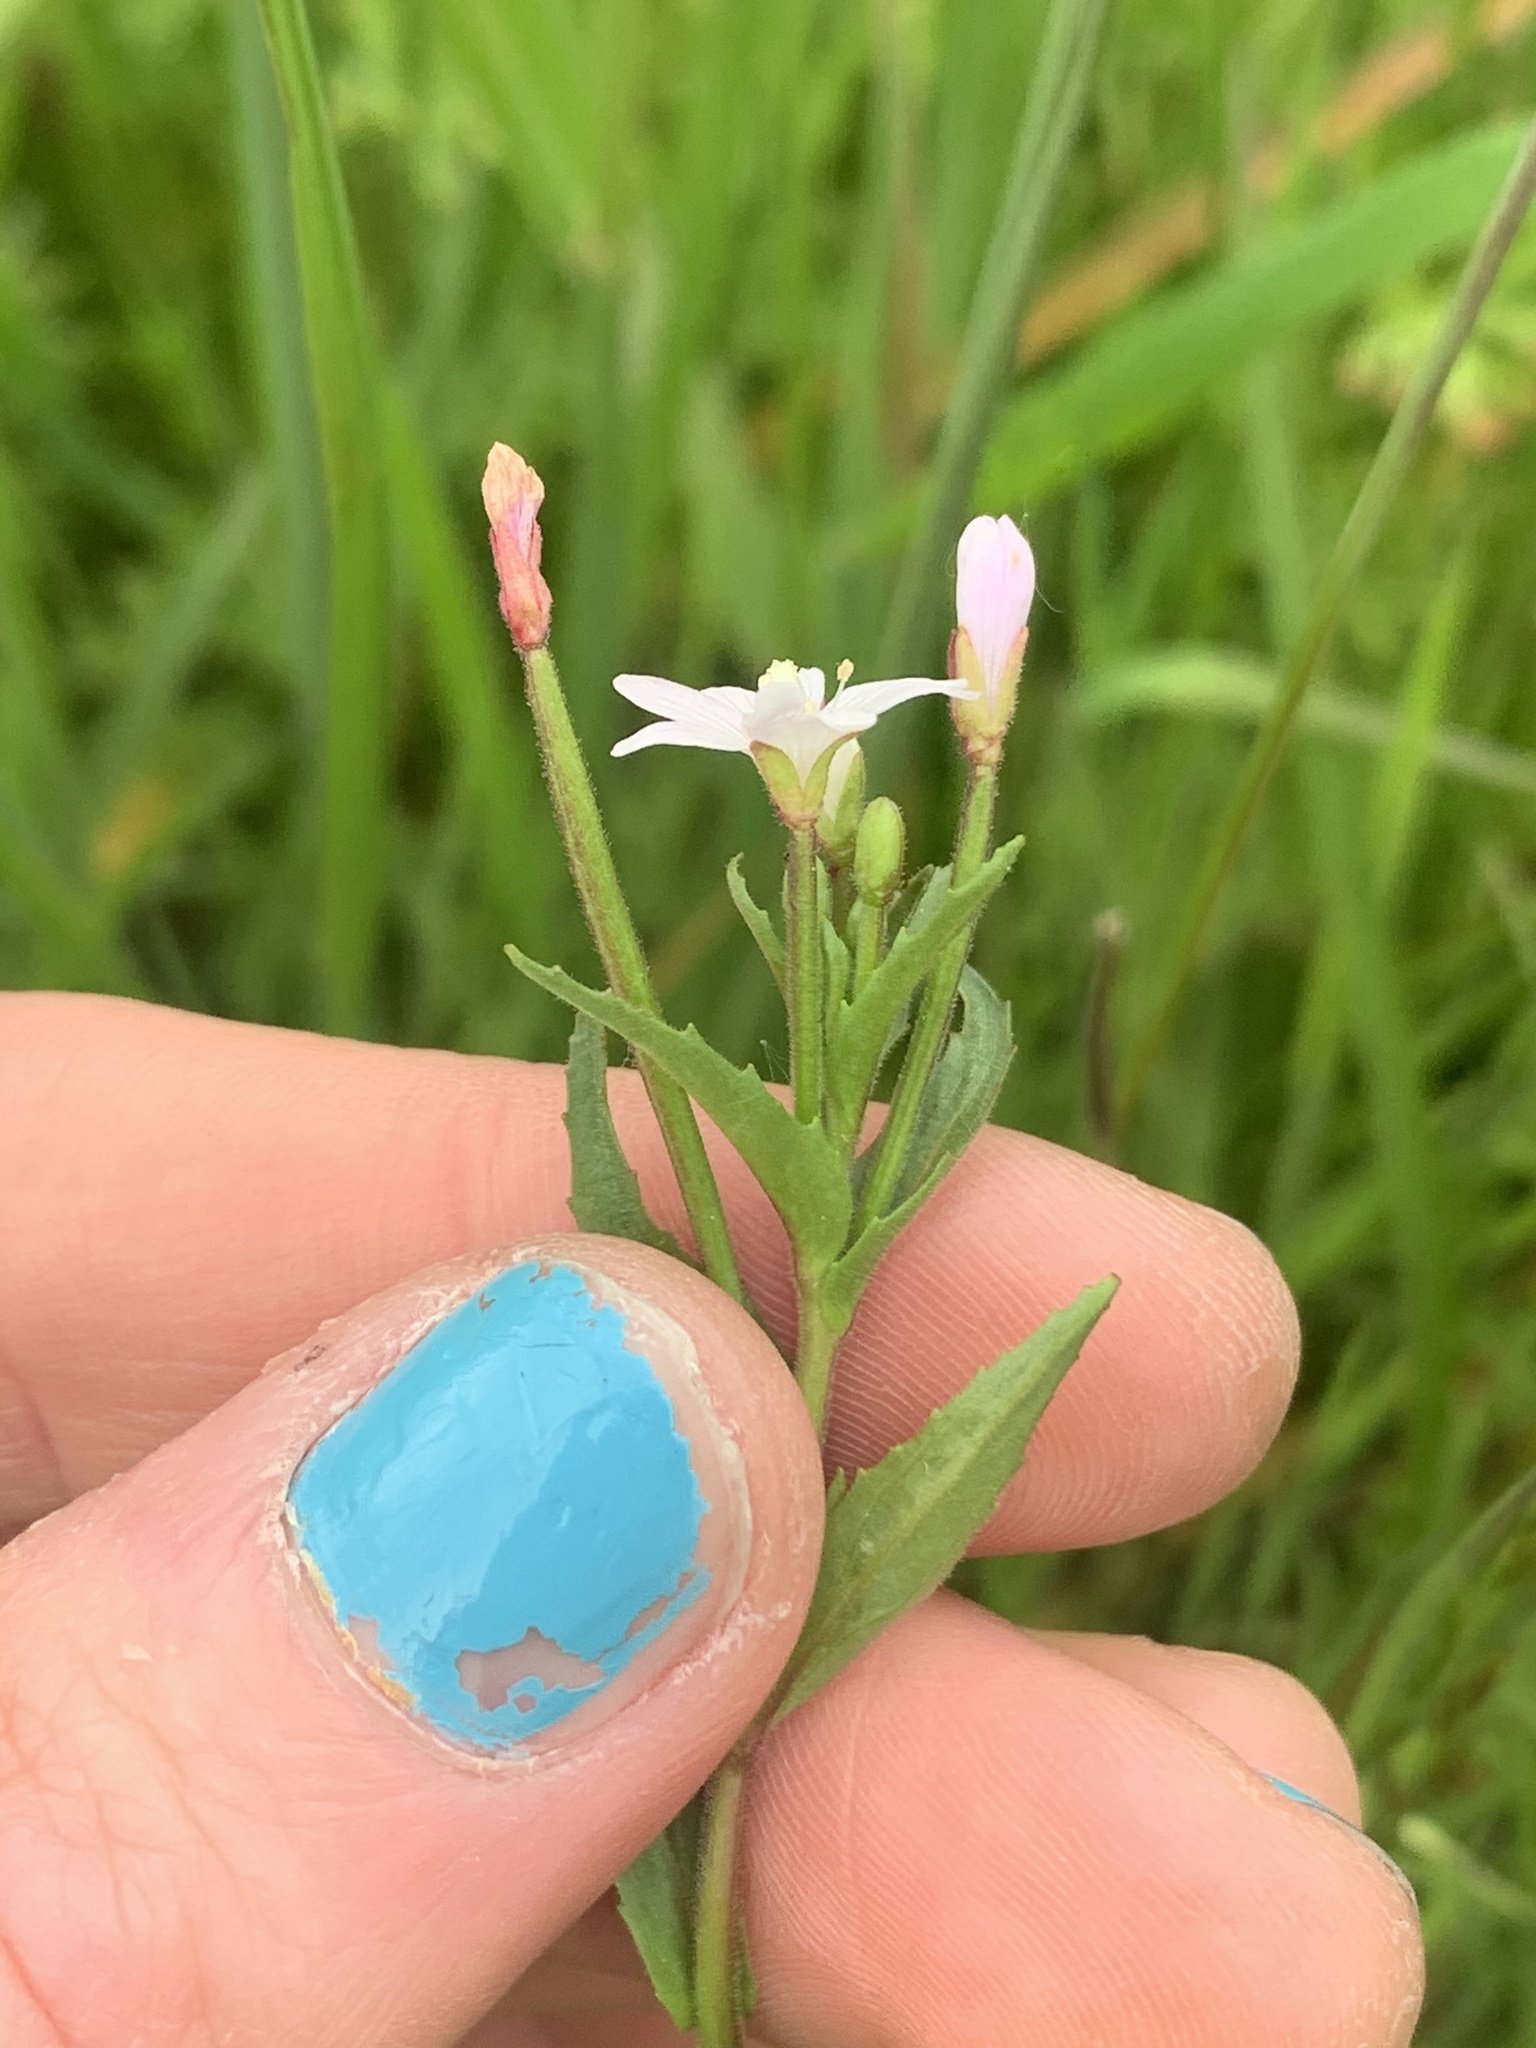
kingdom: Plantae
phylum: Tracheophyta
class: Magnoliopsida
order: Myrtales
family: Onagraceae
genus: Epilobium
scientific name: Epilobium ciliatum
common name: American willowherb
